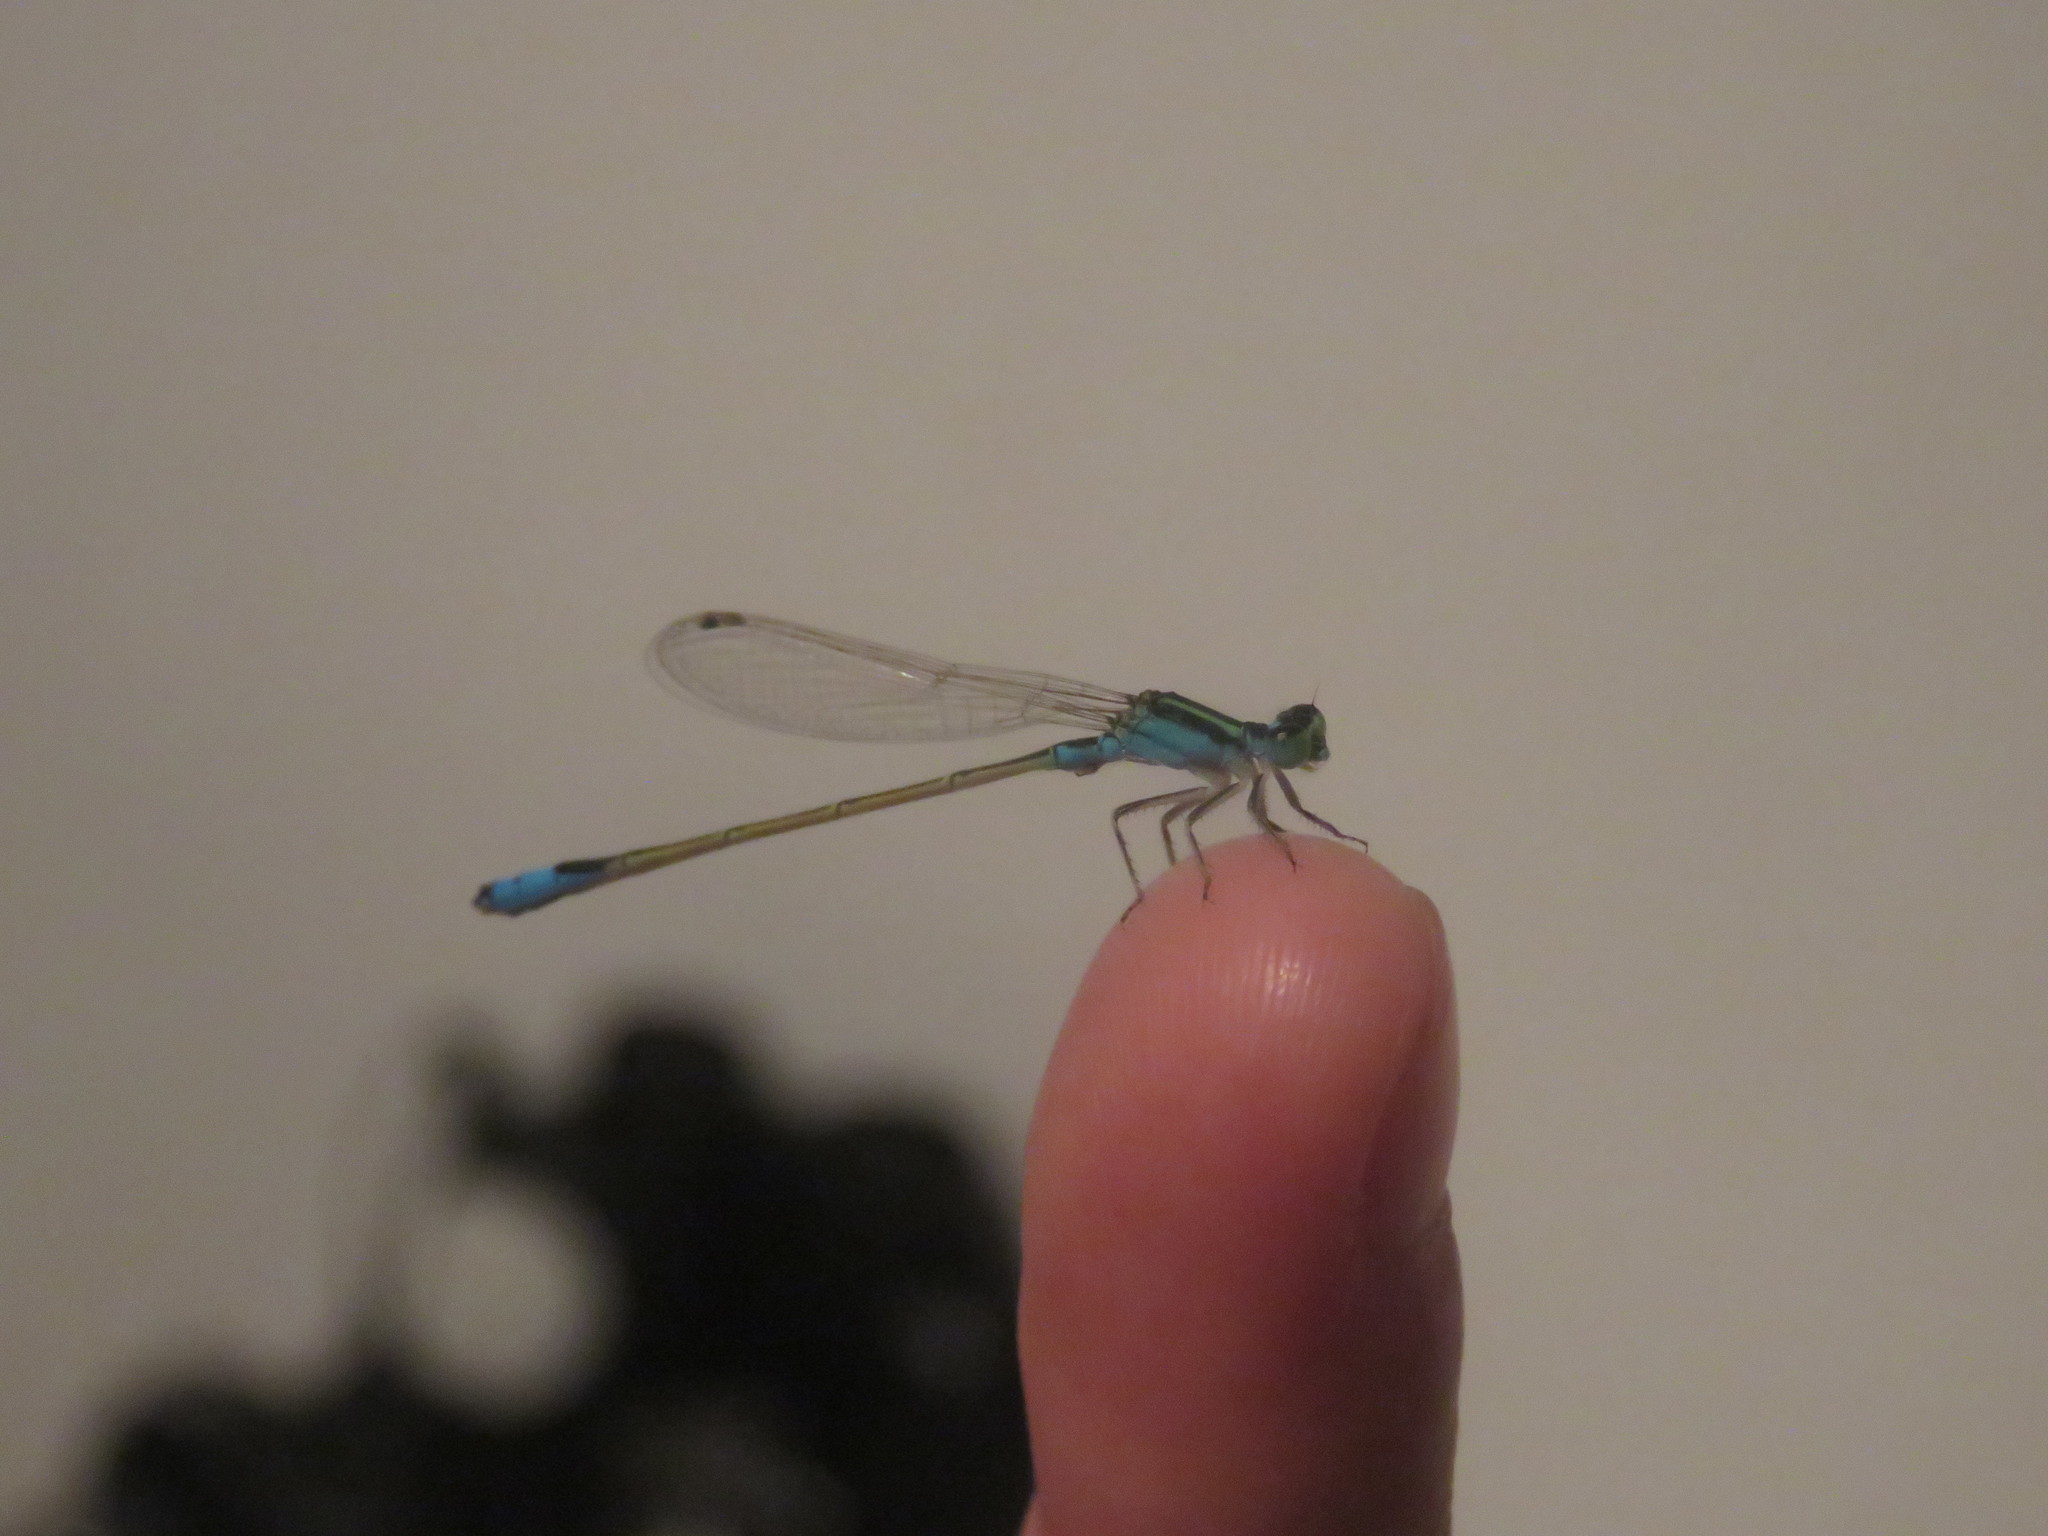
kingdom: Animalia
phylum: Arthropoda
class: Insecta
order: Odonata
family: Coenagrionidae
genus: Ischnura
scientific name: Ischnura fluviatilis
